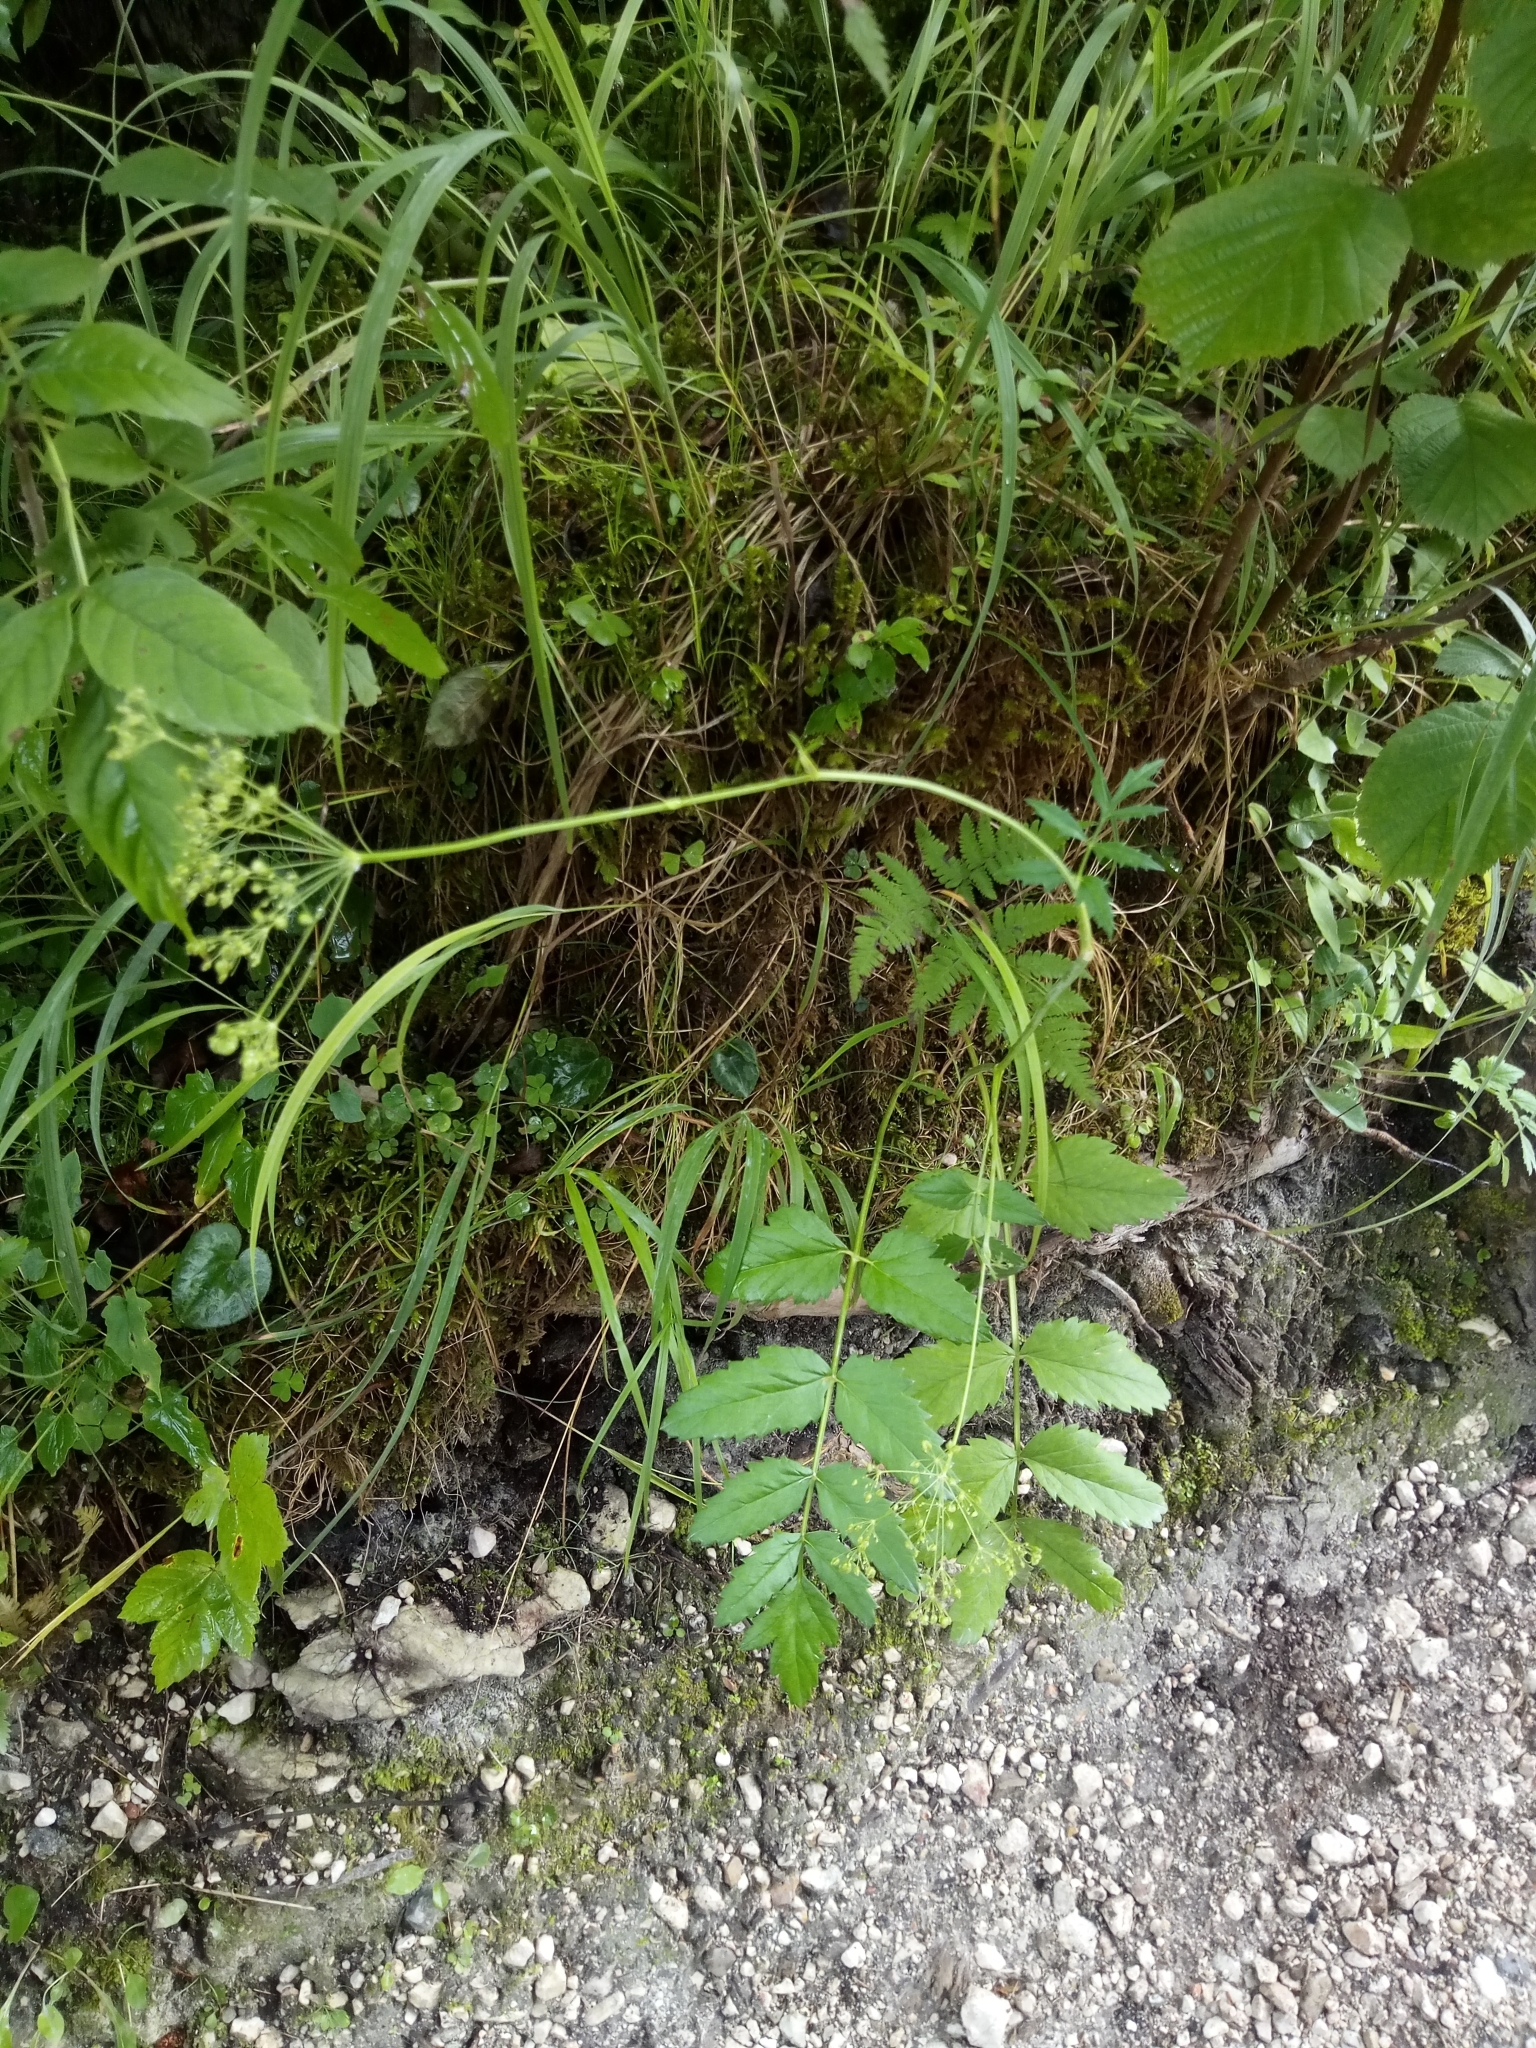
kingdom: Plantae
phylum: Tracheophyta
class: Magnoliopsida
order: Apiales
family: Apiaceae
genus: Pimpinella
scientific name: Pimpinella major
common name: Greater burnet-saxifrage
